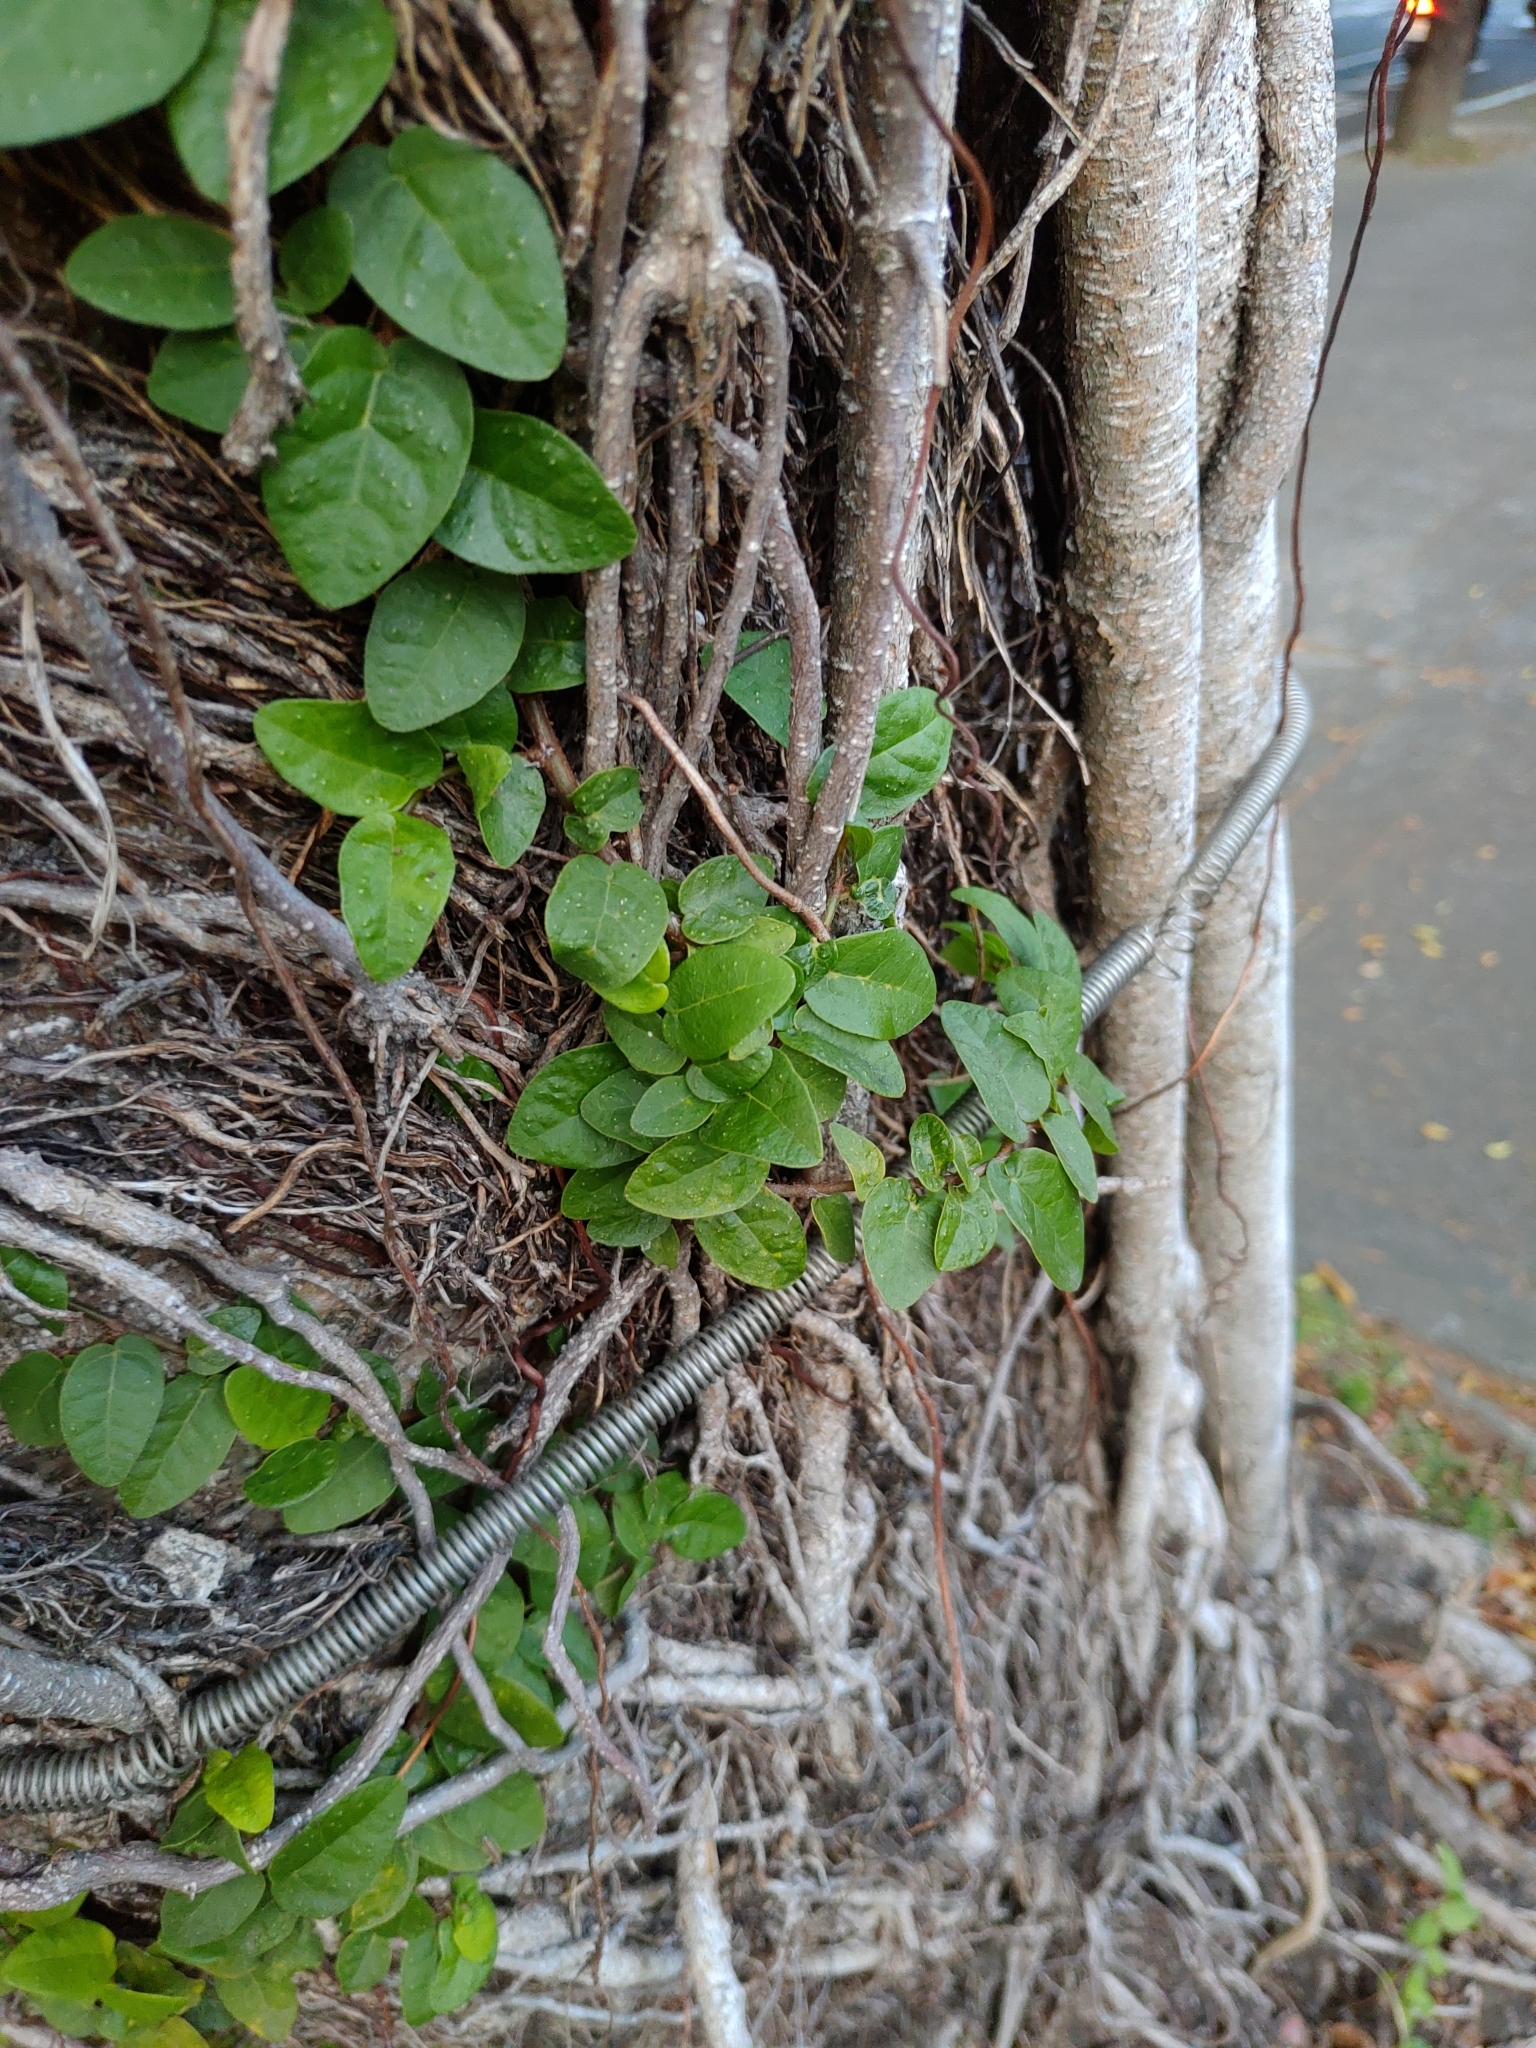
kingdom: Plantae
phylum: Tracheophyta
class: Magnoliopsida
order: Rosales
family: Moraceae
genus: Ficus
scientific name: Ficus pumila
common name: Climbingfig
